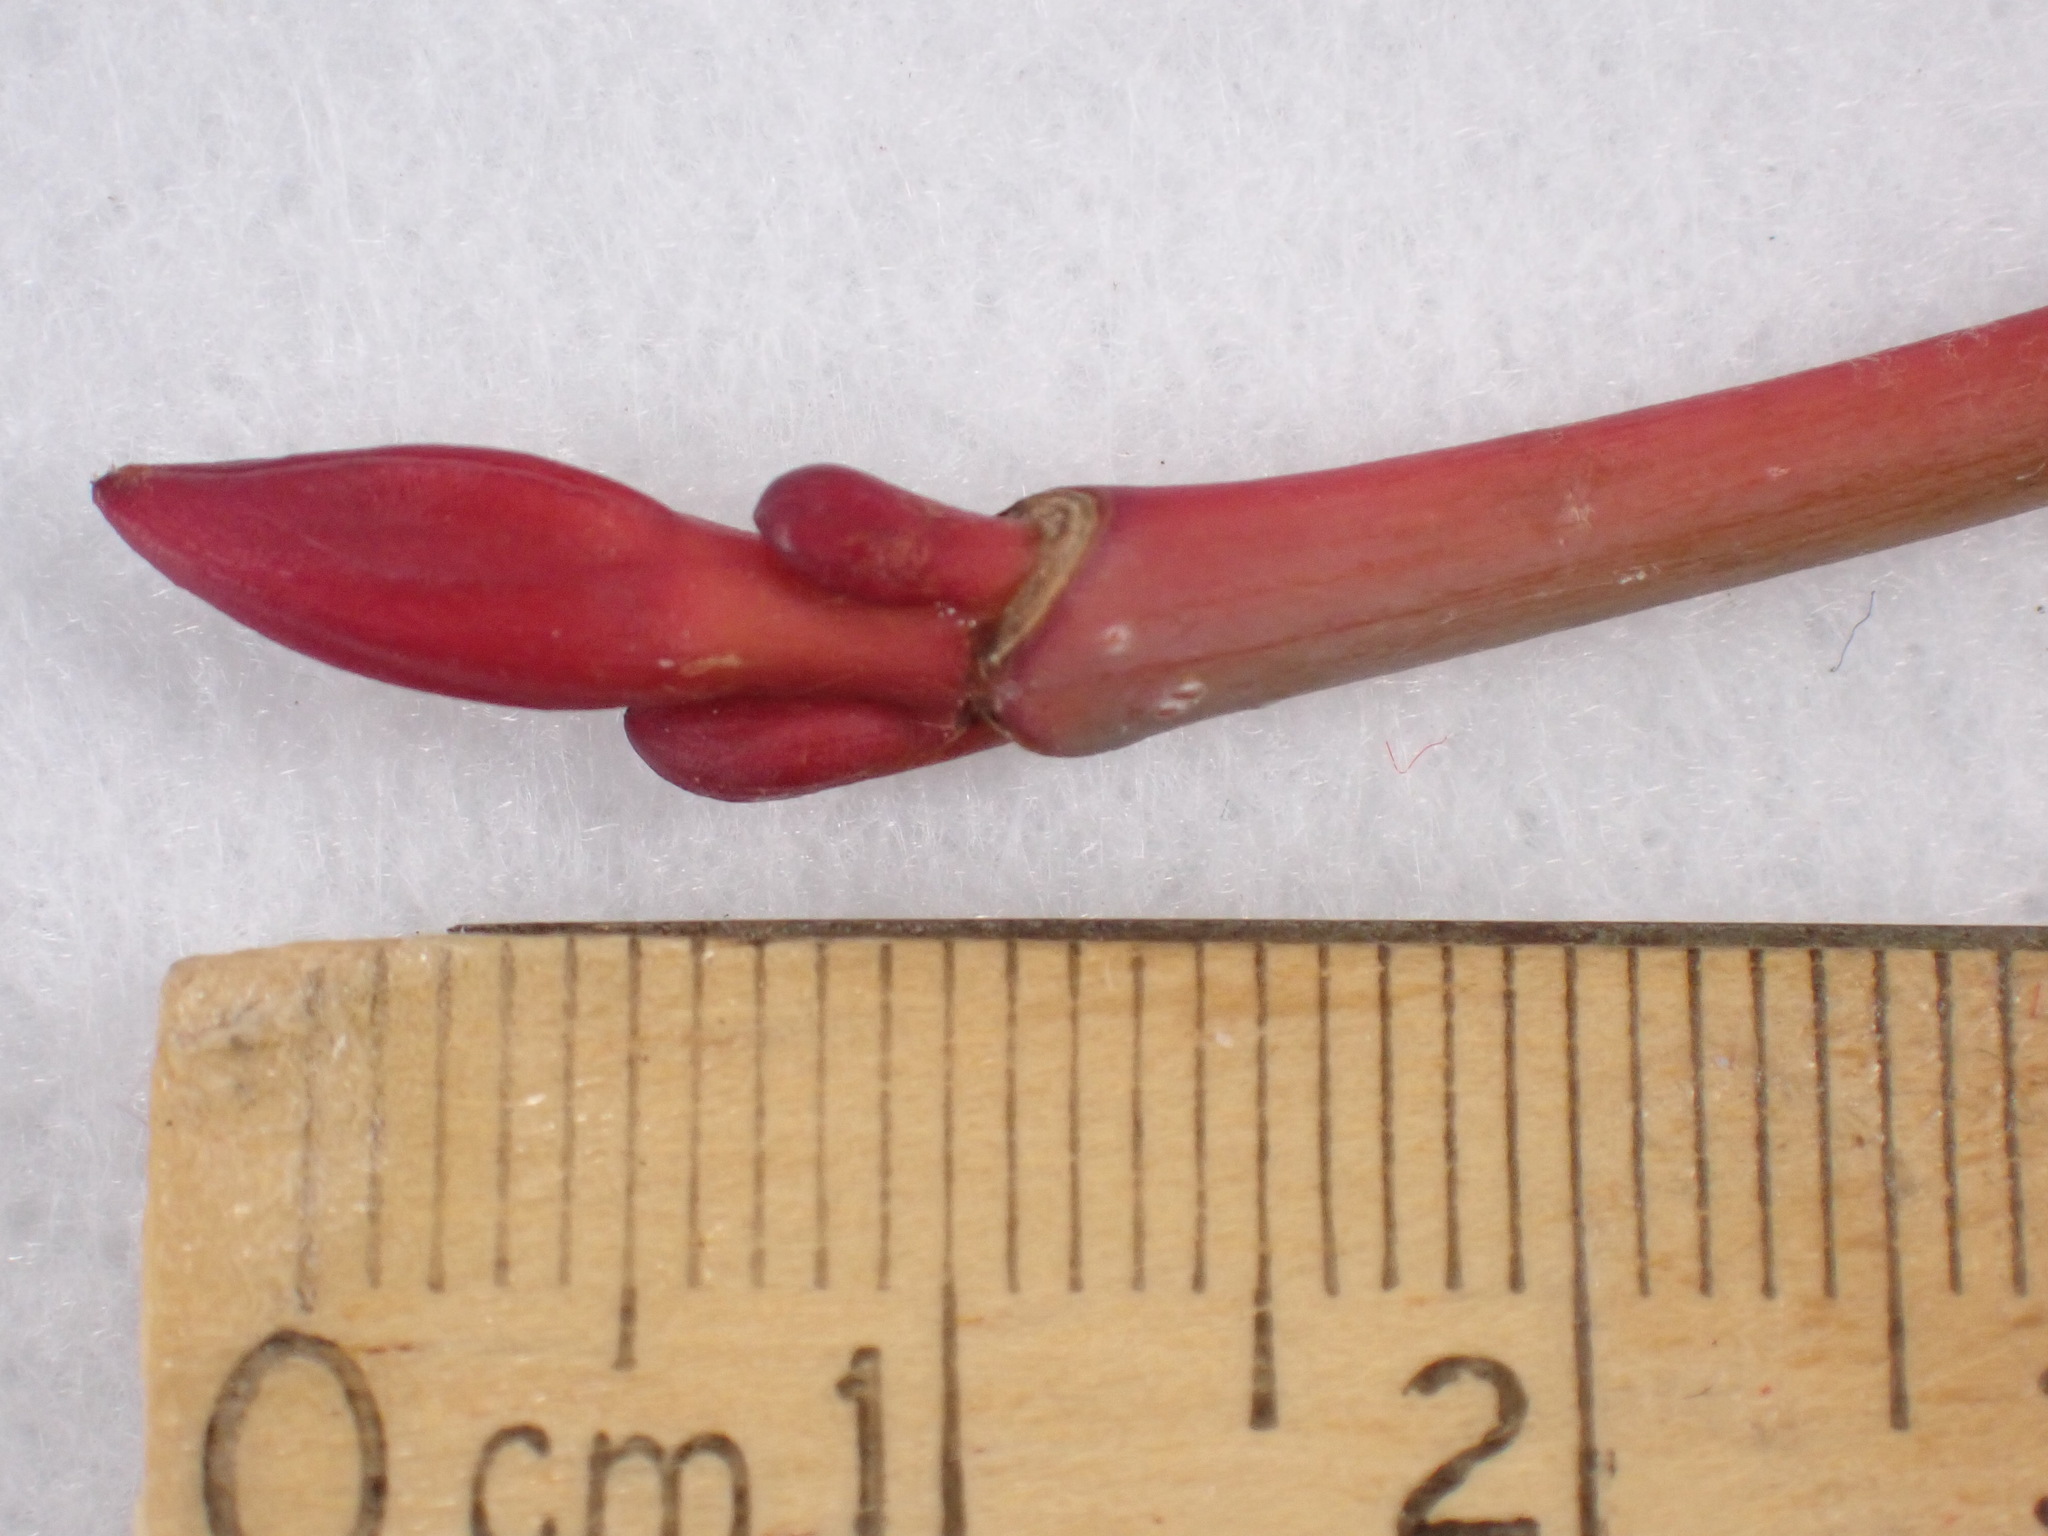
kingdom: Plantae
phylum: Tracheophyta
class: Magnoliopsida
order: Sapindales
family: Sapindaceae
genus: Acer
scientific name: Acer pensylvanicum
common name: Moosewood
